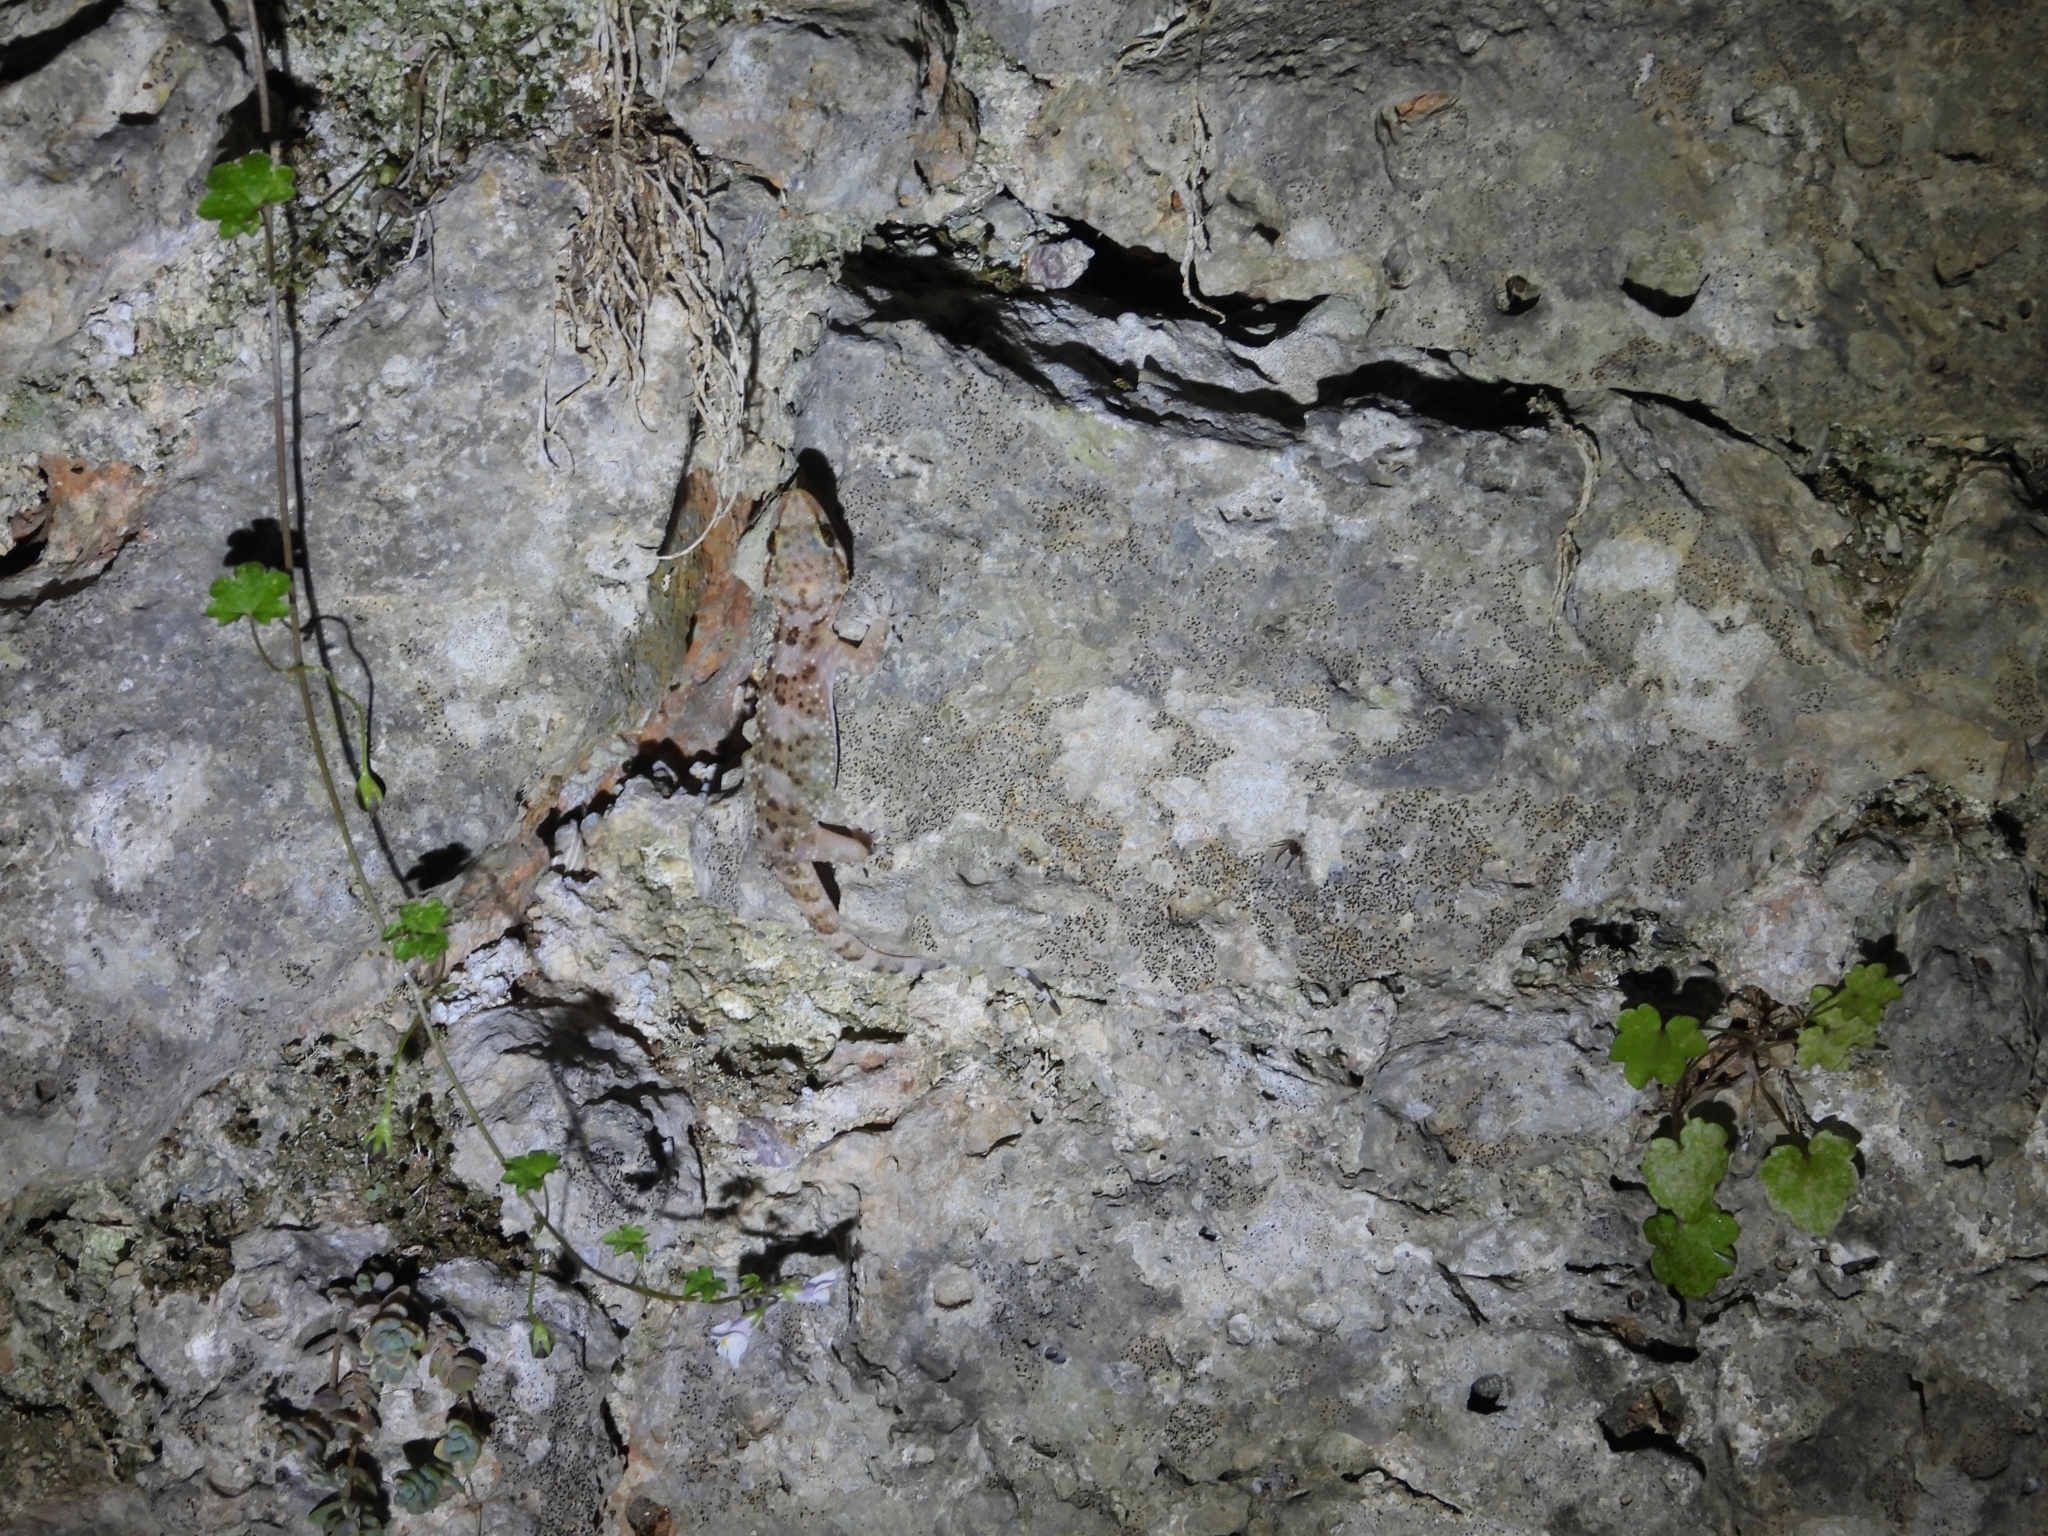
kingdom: Animalia
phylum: Chordata
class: Squamata
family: Gekkonidae
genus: Hemidactylus
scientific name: Hemidactylus turcicus
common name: Turkish gecko
